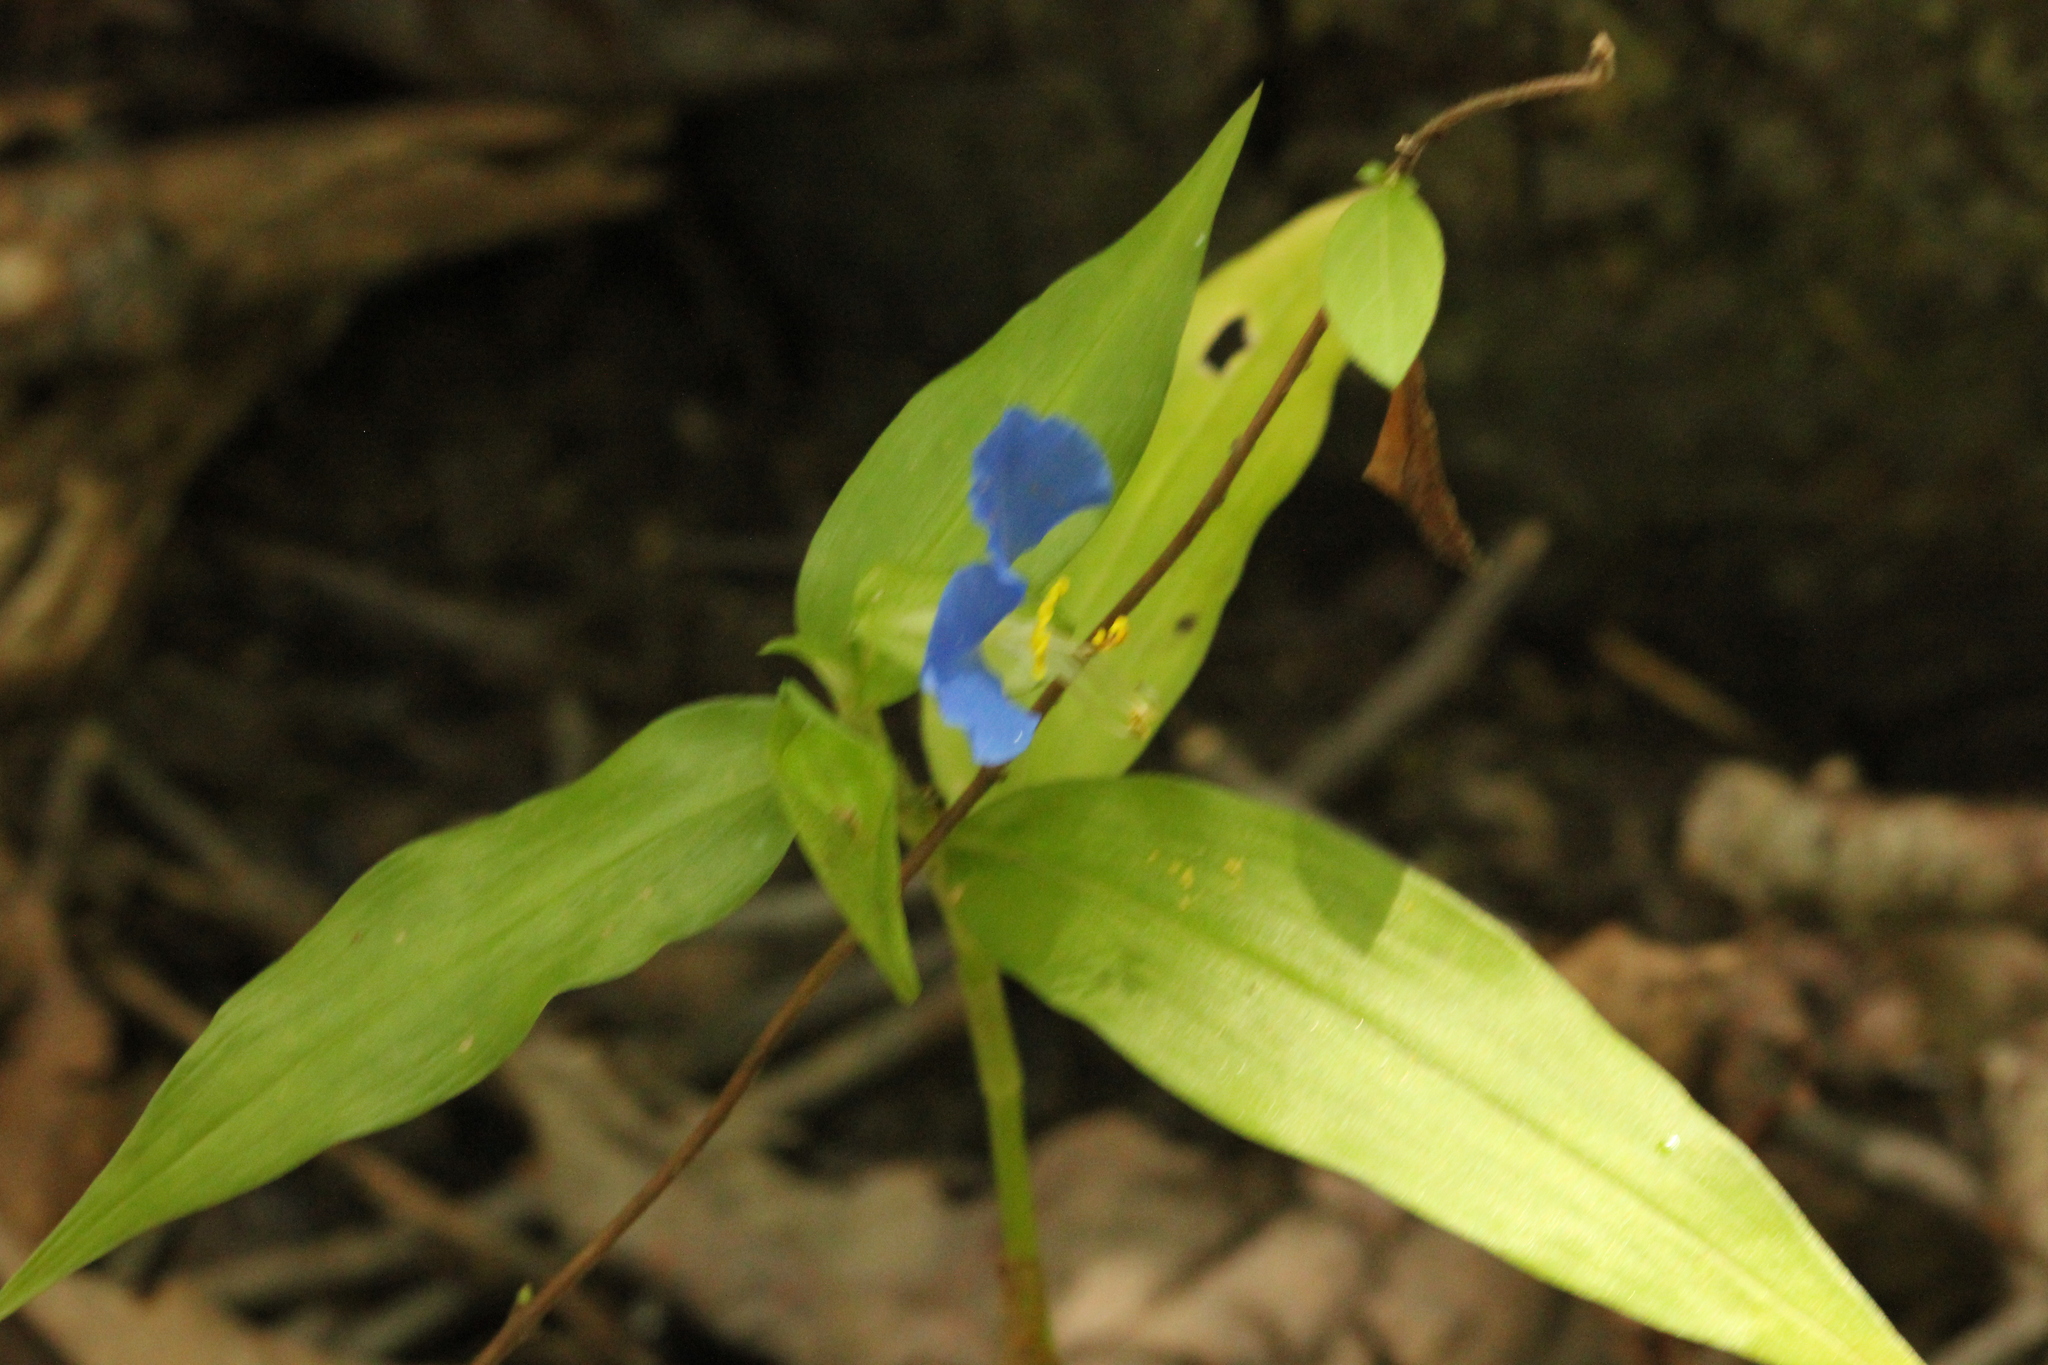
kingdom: Plantae
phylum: Tracheophyta
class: Liliopsida
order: Commelinales
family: Commelinaceae
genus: Commelina
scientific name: Commelina communis
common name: Asiatic dayflower
